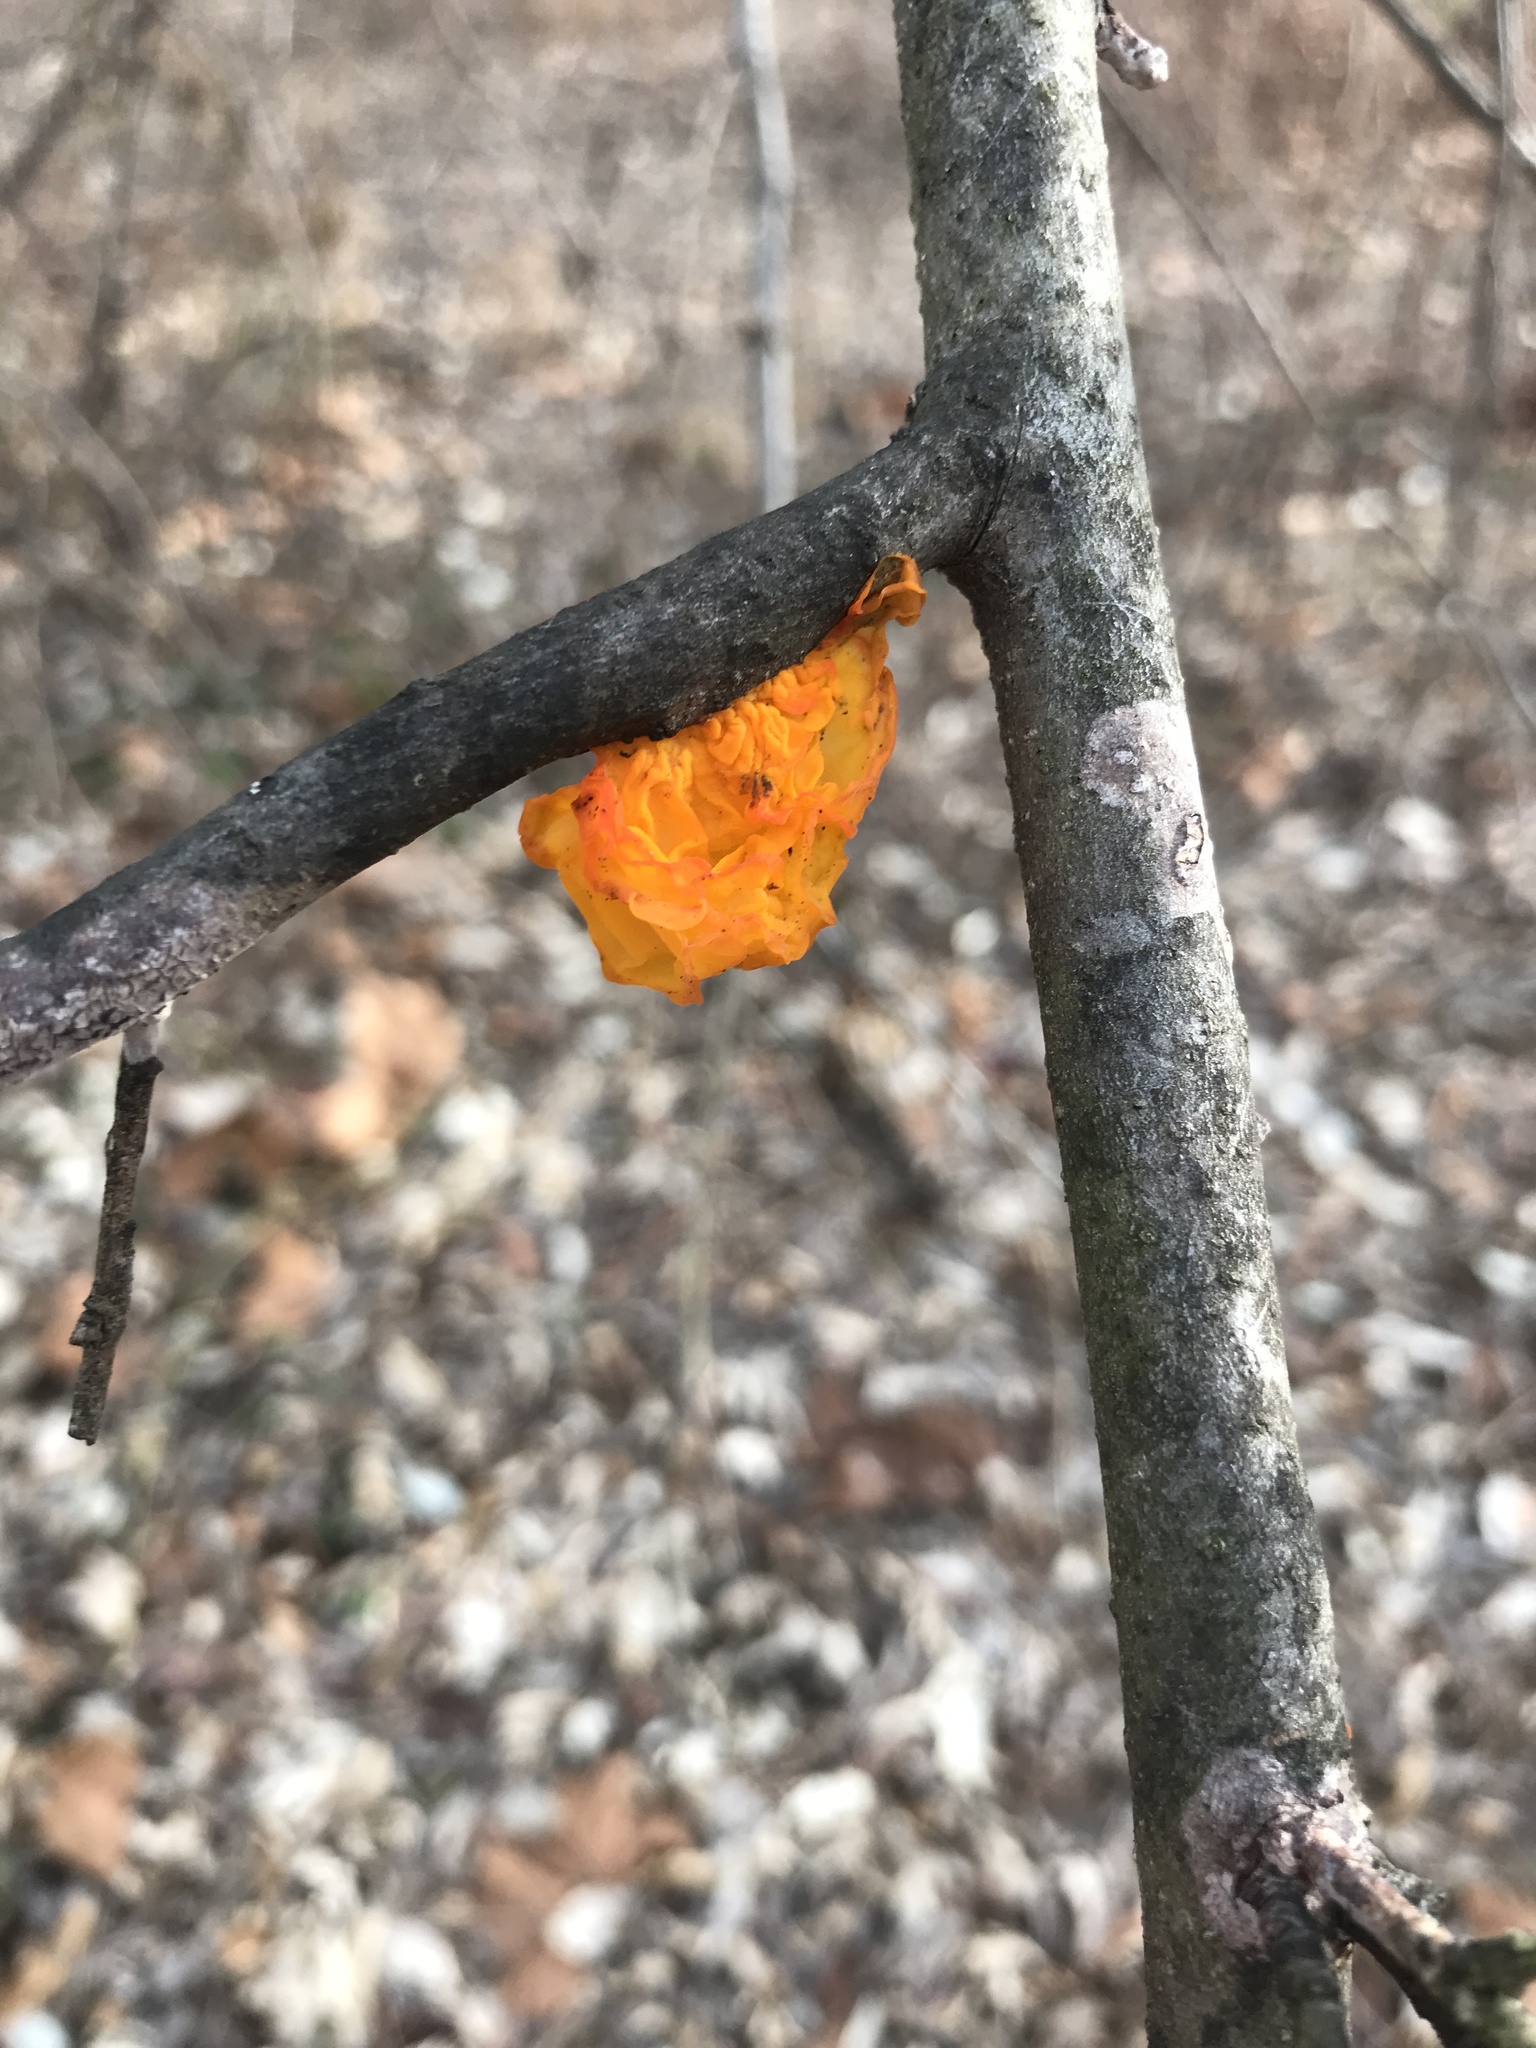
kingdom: Fungi
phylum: Basidiomycota
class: Tremellomycetes
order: Tremellales
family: Tremellaceae
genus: Tremella
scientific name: Tremella mesenterica
